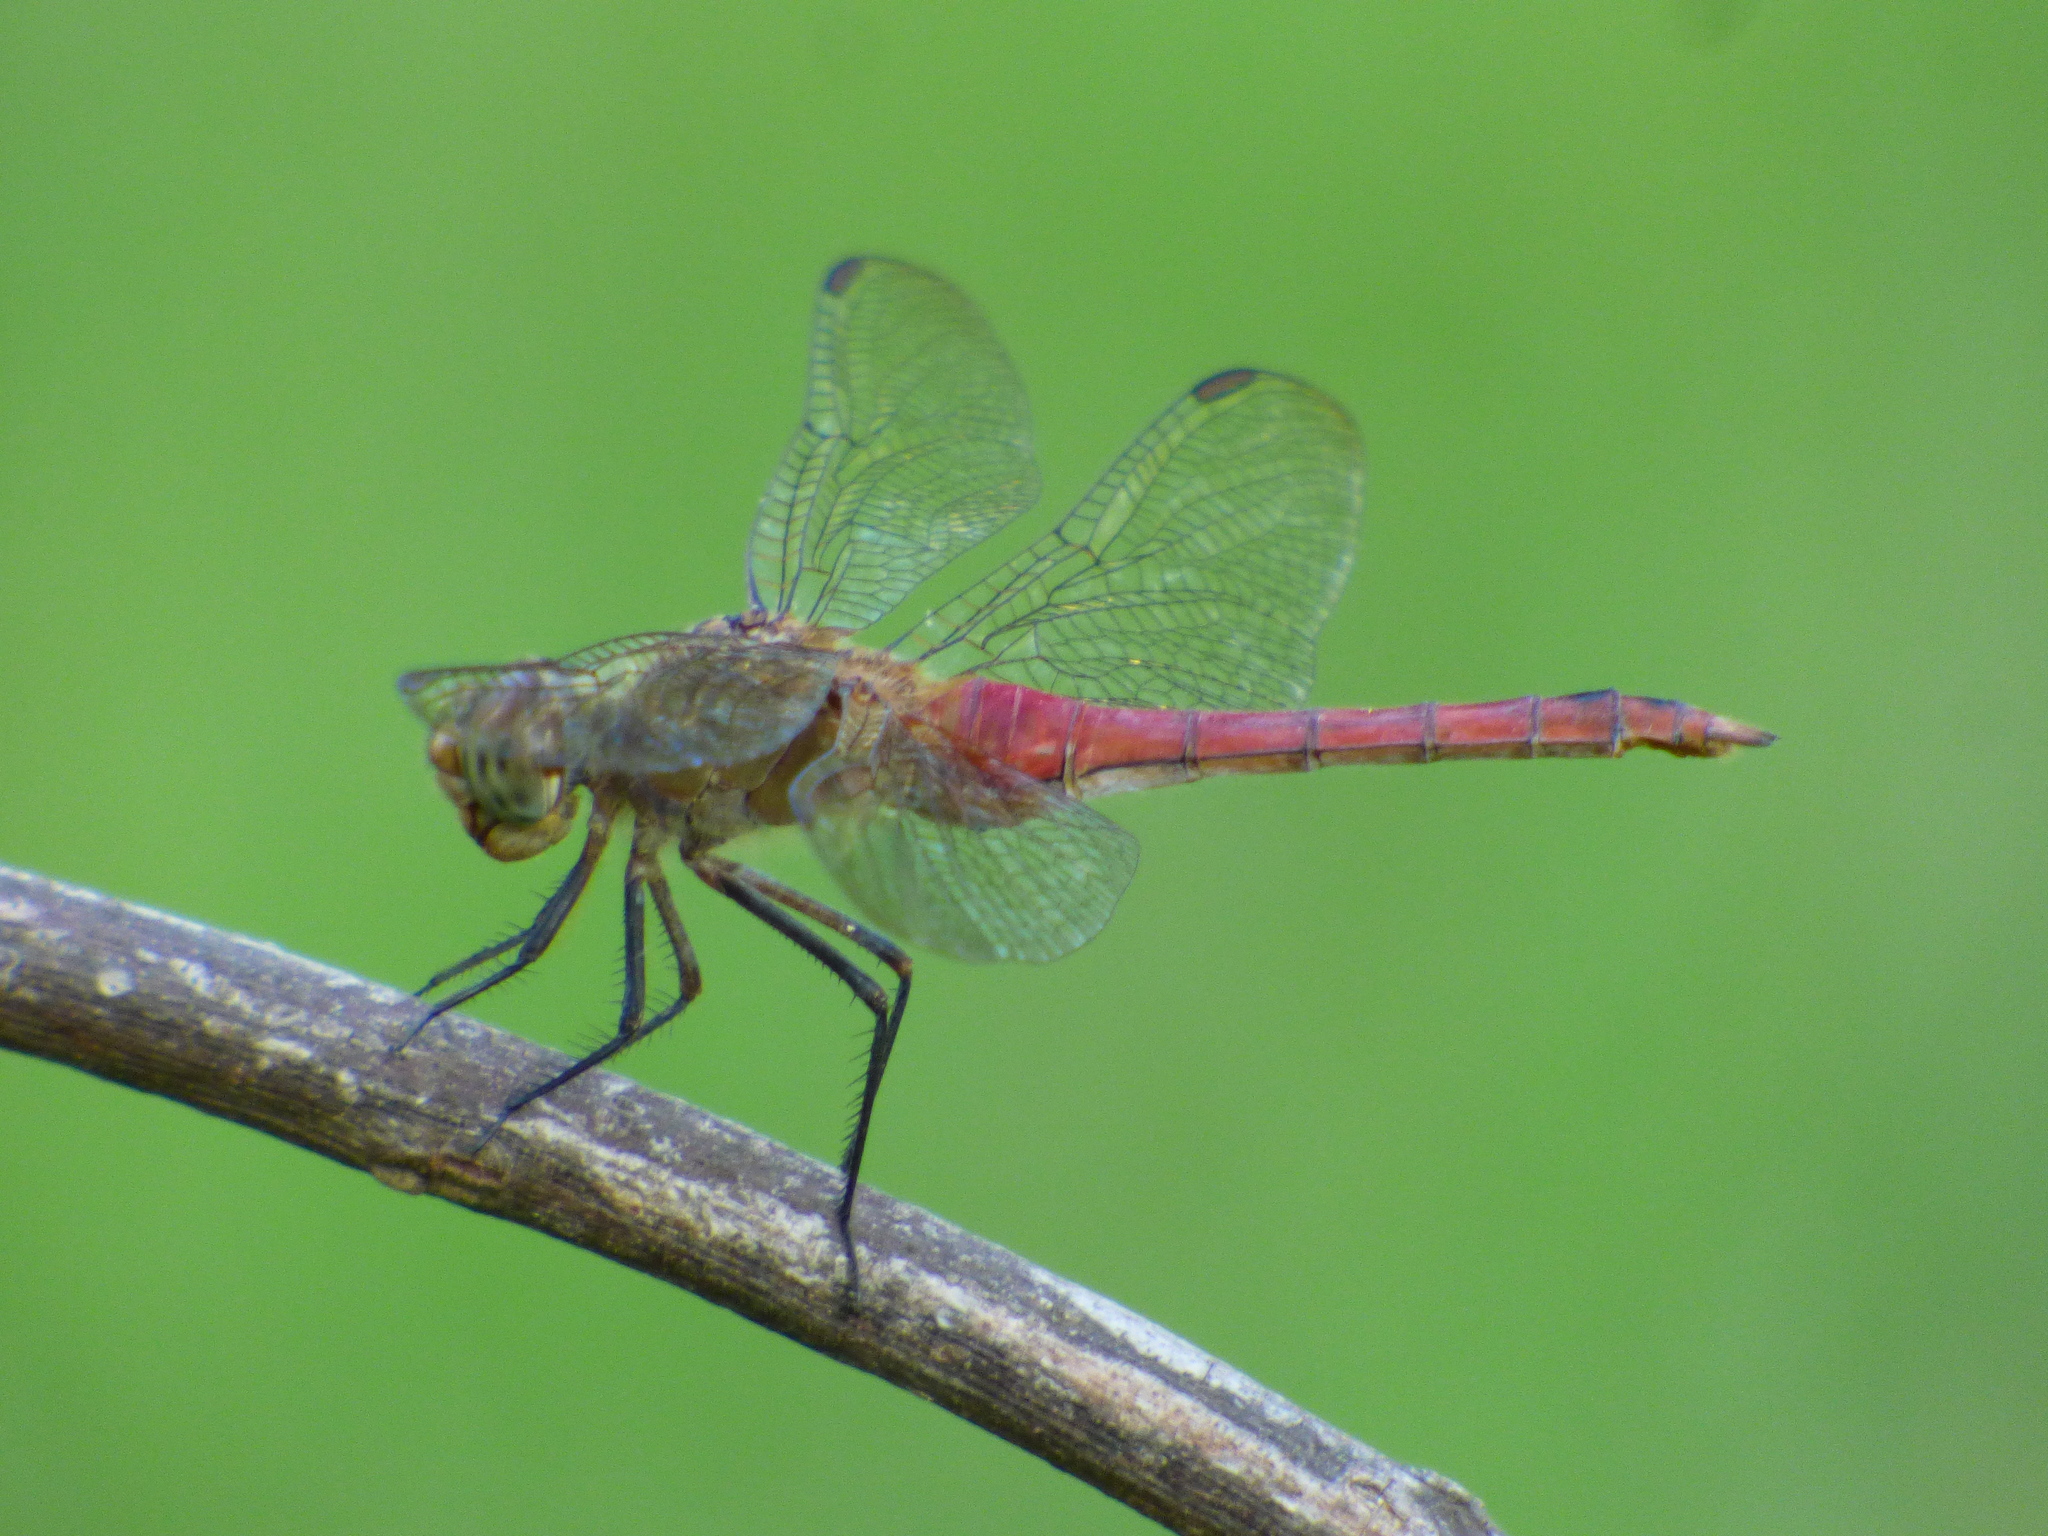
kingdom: Animalia
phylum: Arthropoda
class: Insecta
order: Odonata
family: Libellulidae
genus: Brachymesia
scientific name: Brachymesia furcata
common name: Red-taled pennant
